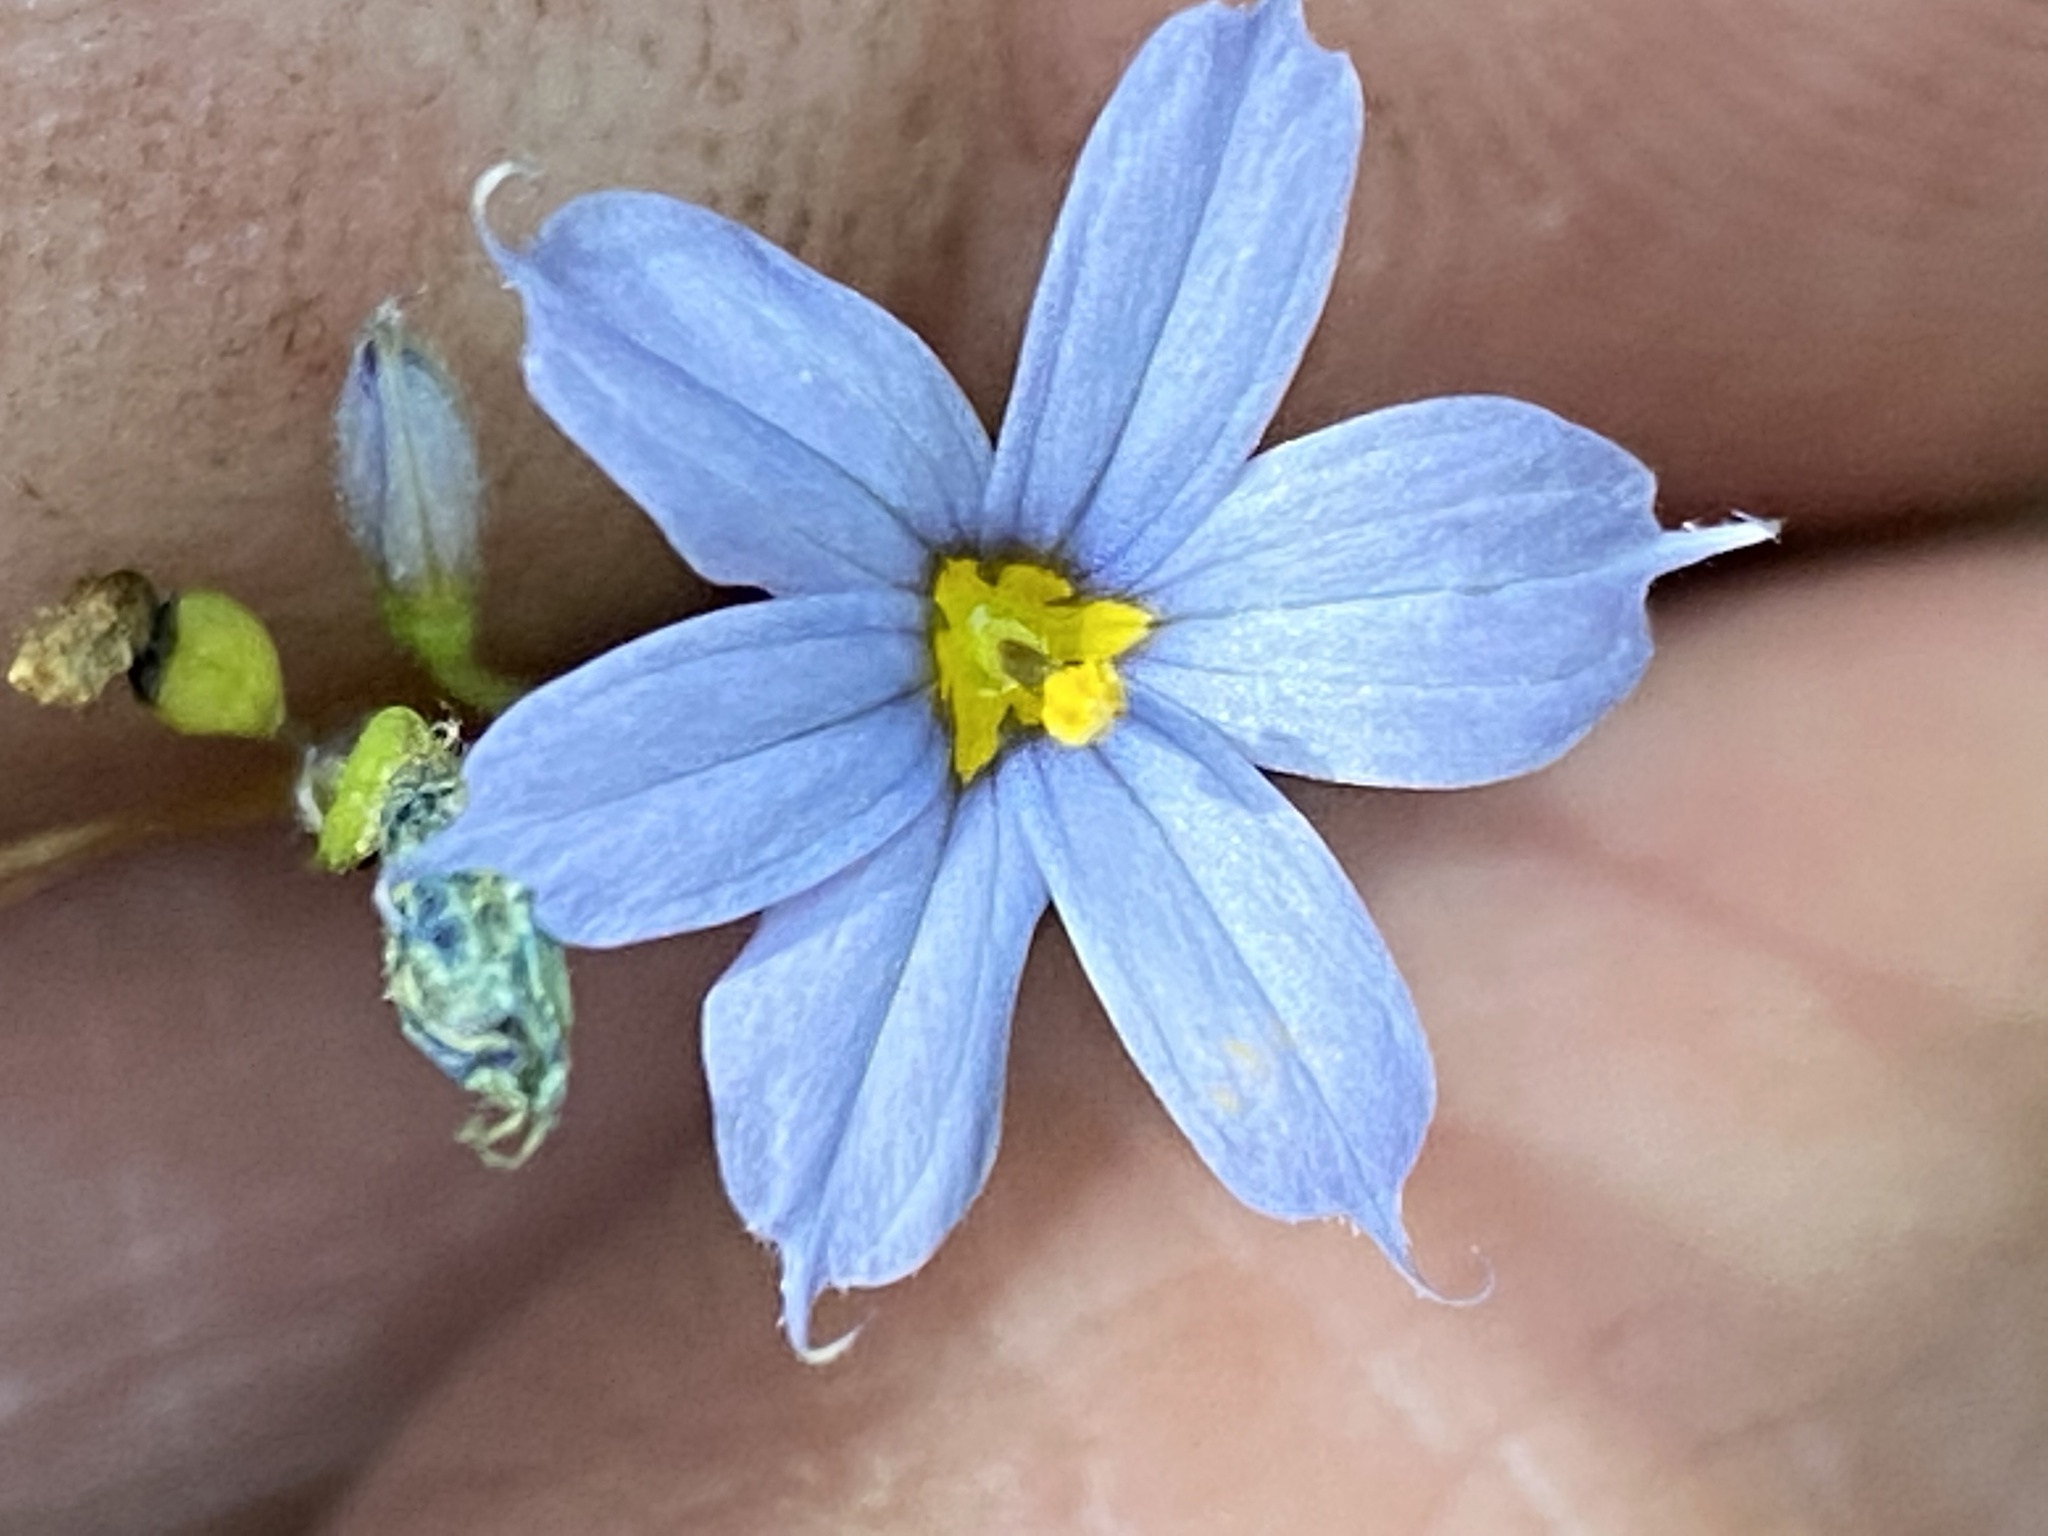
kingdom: Plantae
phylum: Tracheophyta
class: Liliopsida
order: Asparagales
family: Iridaceae
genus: Sisyrinchium
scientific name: Sisyrinchium langloisii
